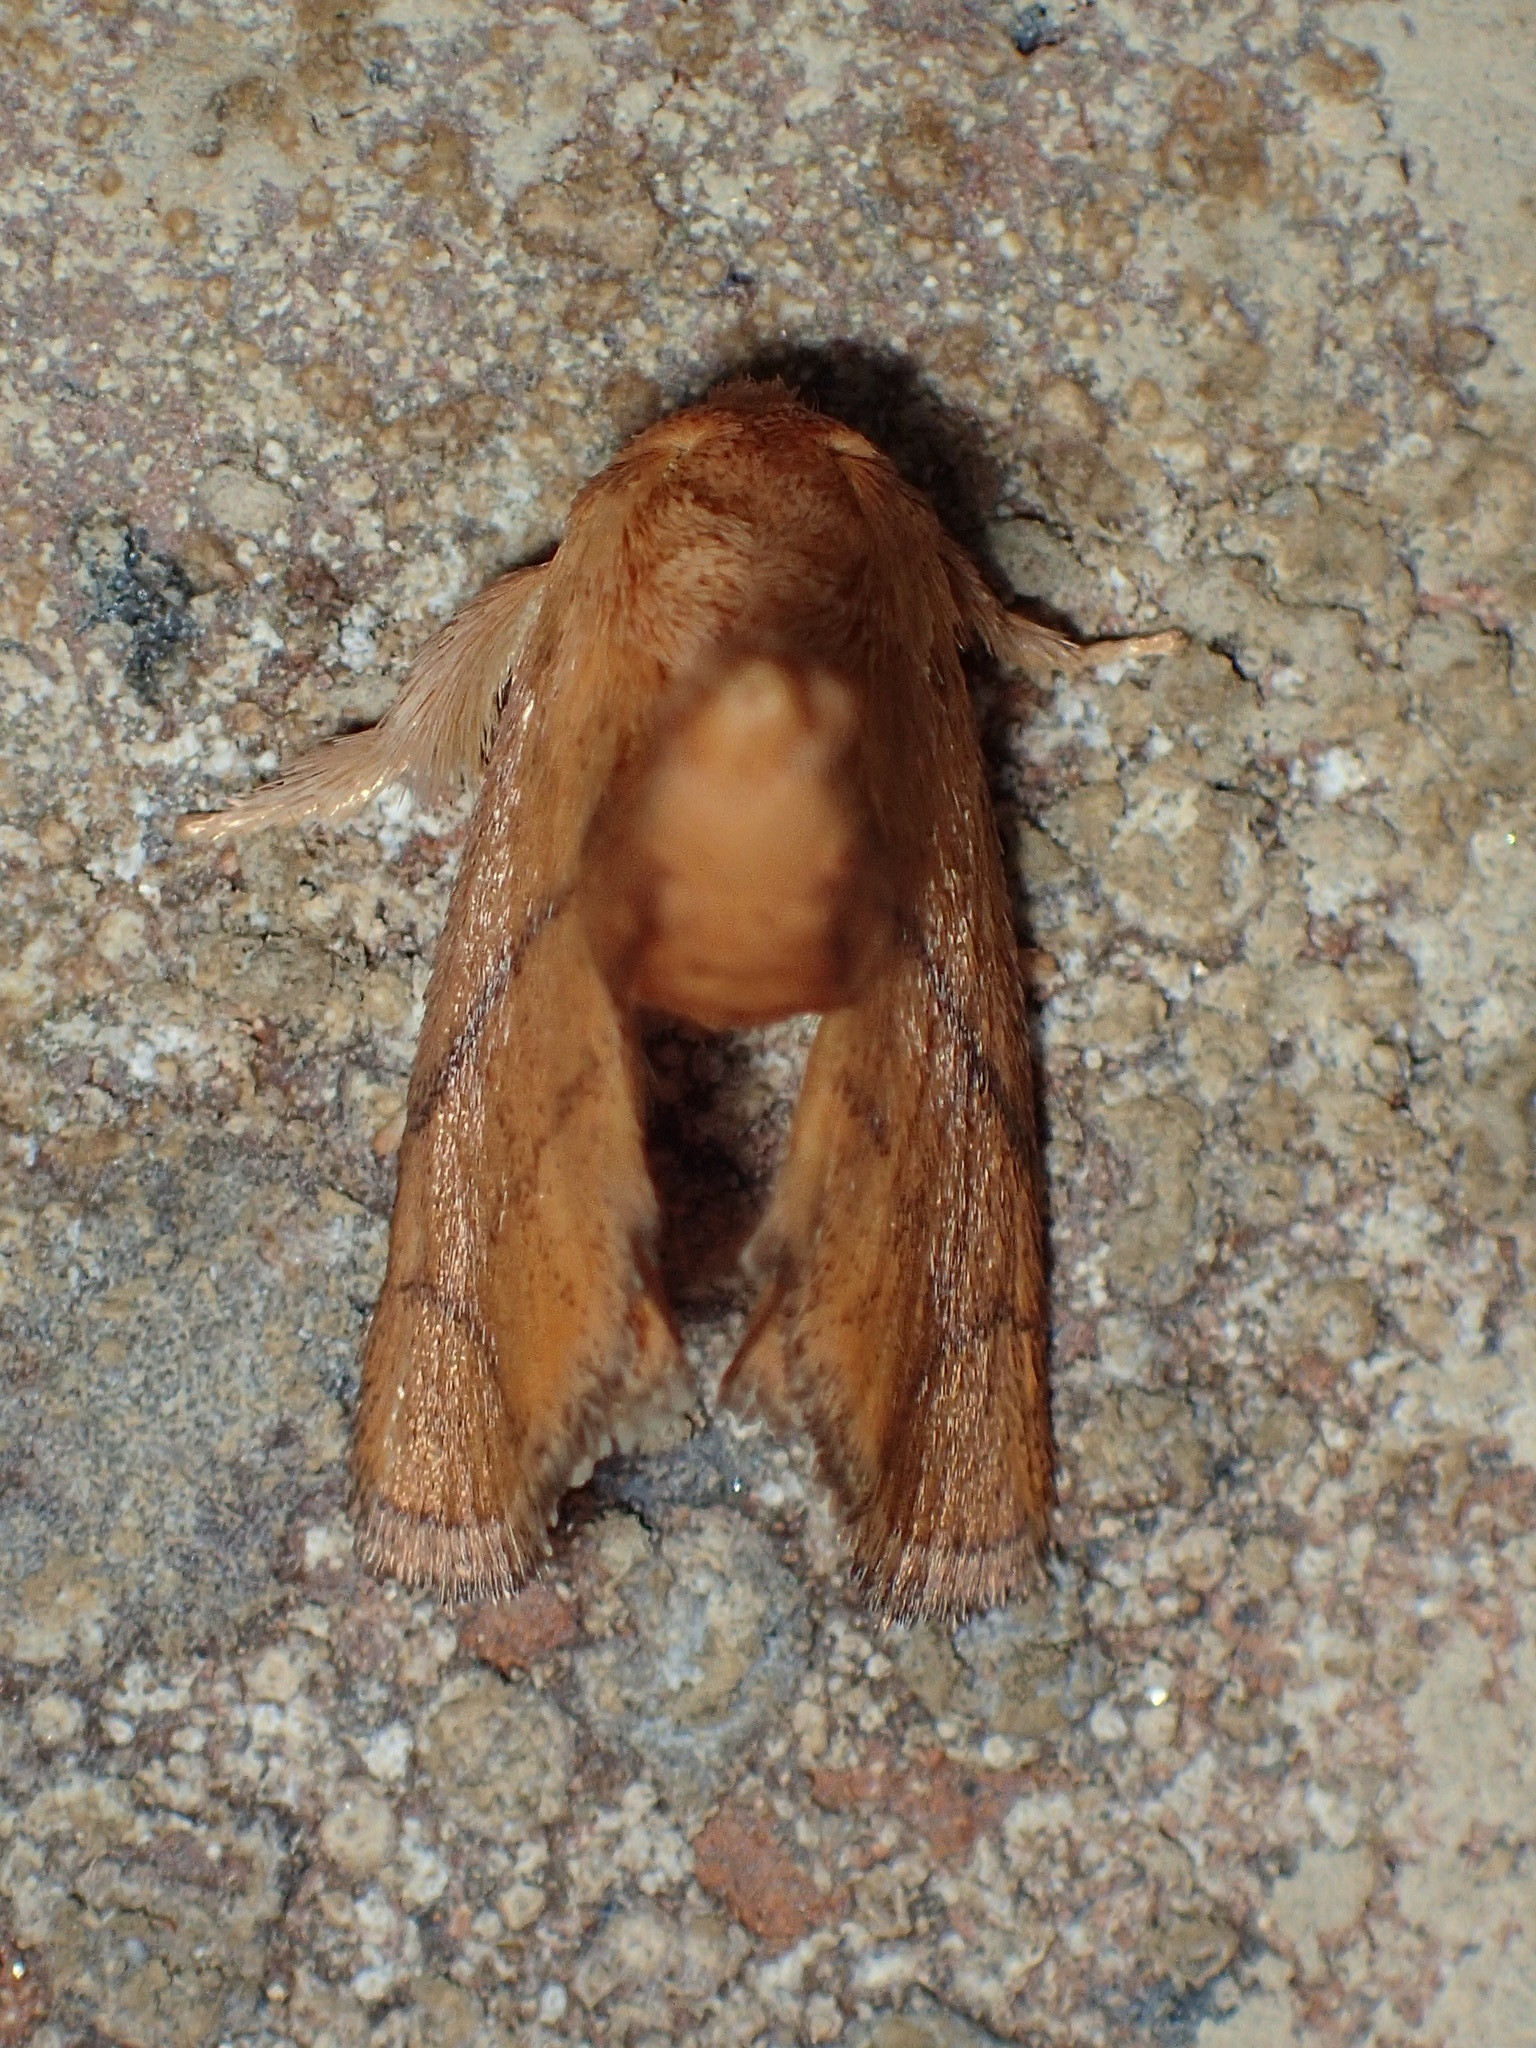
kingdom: Animalia
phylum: Arthropoda
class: Insecta
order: Lepidoptera
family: Limacodidae
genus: Apoda
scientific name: Apoda y-inversa
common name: Yellow-collared slug moth
